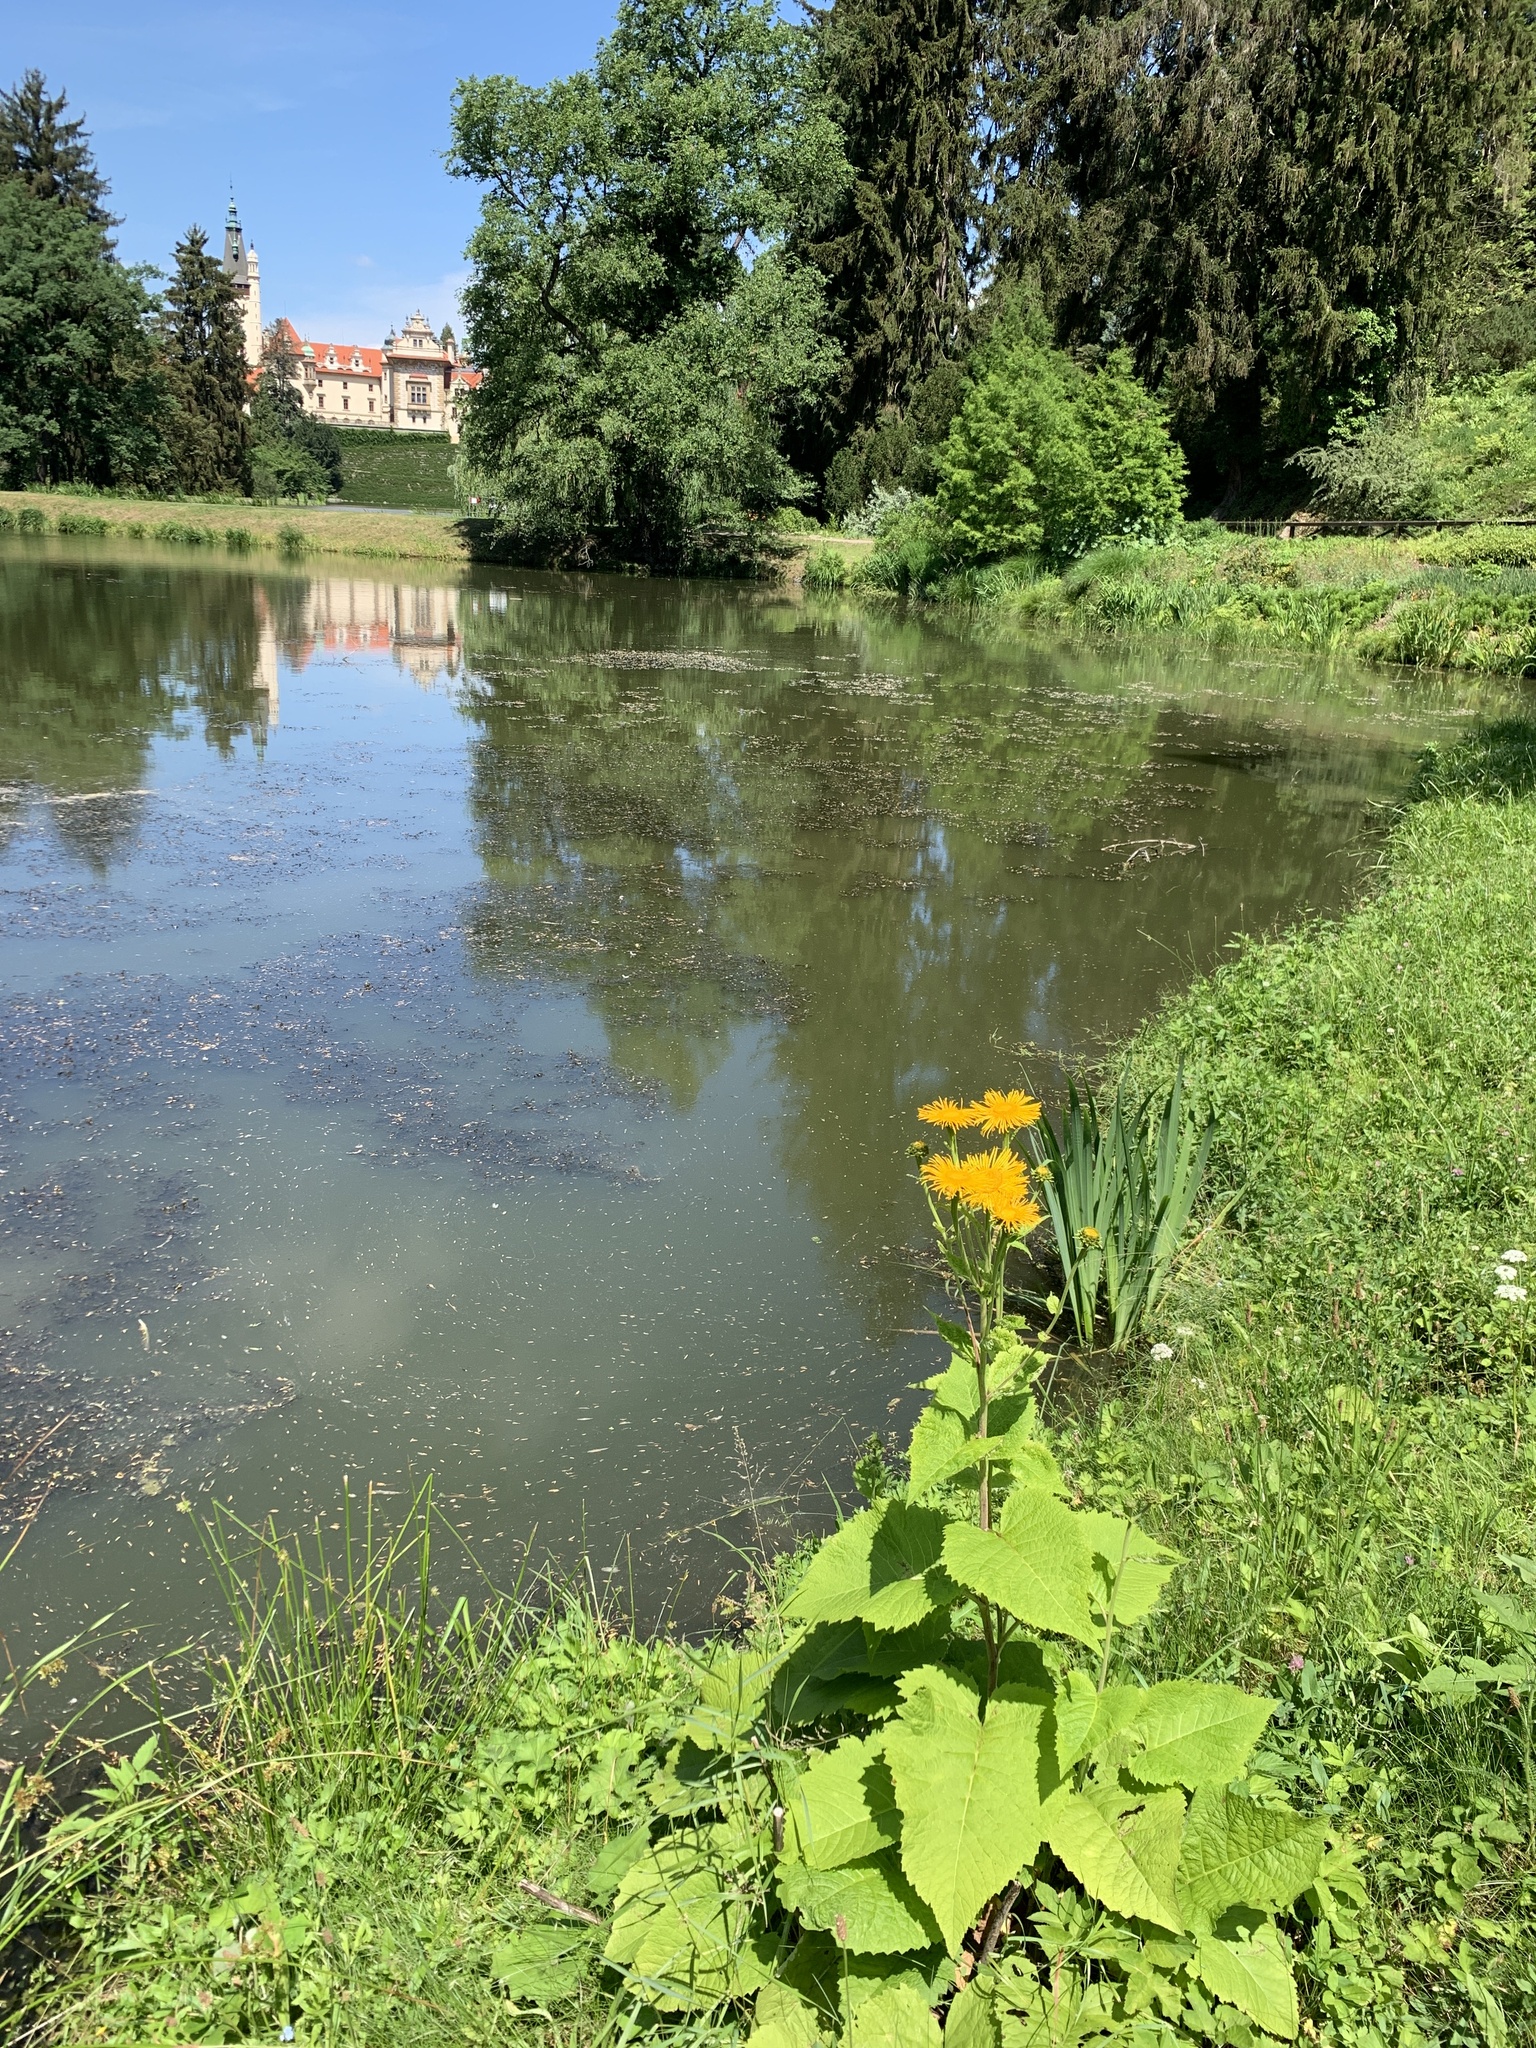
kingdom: Plantae
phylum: Tracheophyta
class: Magnoliopsida
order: Asterales
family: Asteraceae
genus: Telekia
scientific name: Telekia speciosa
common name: Yellow oxeye
